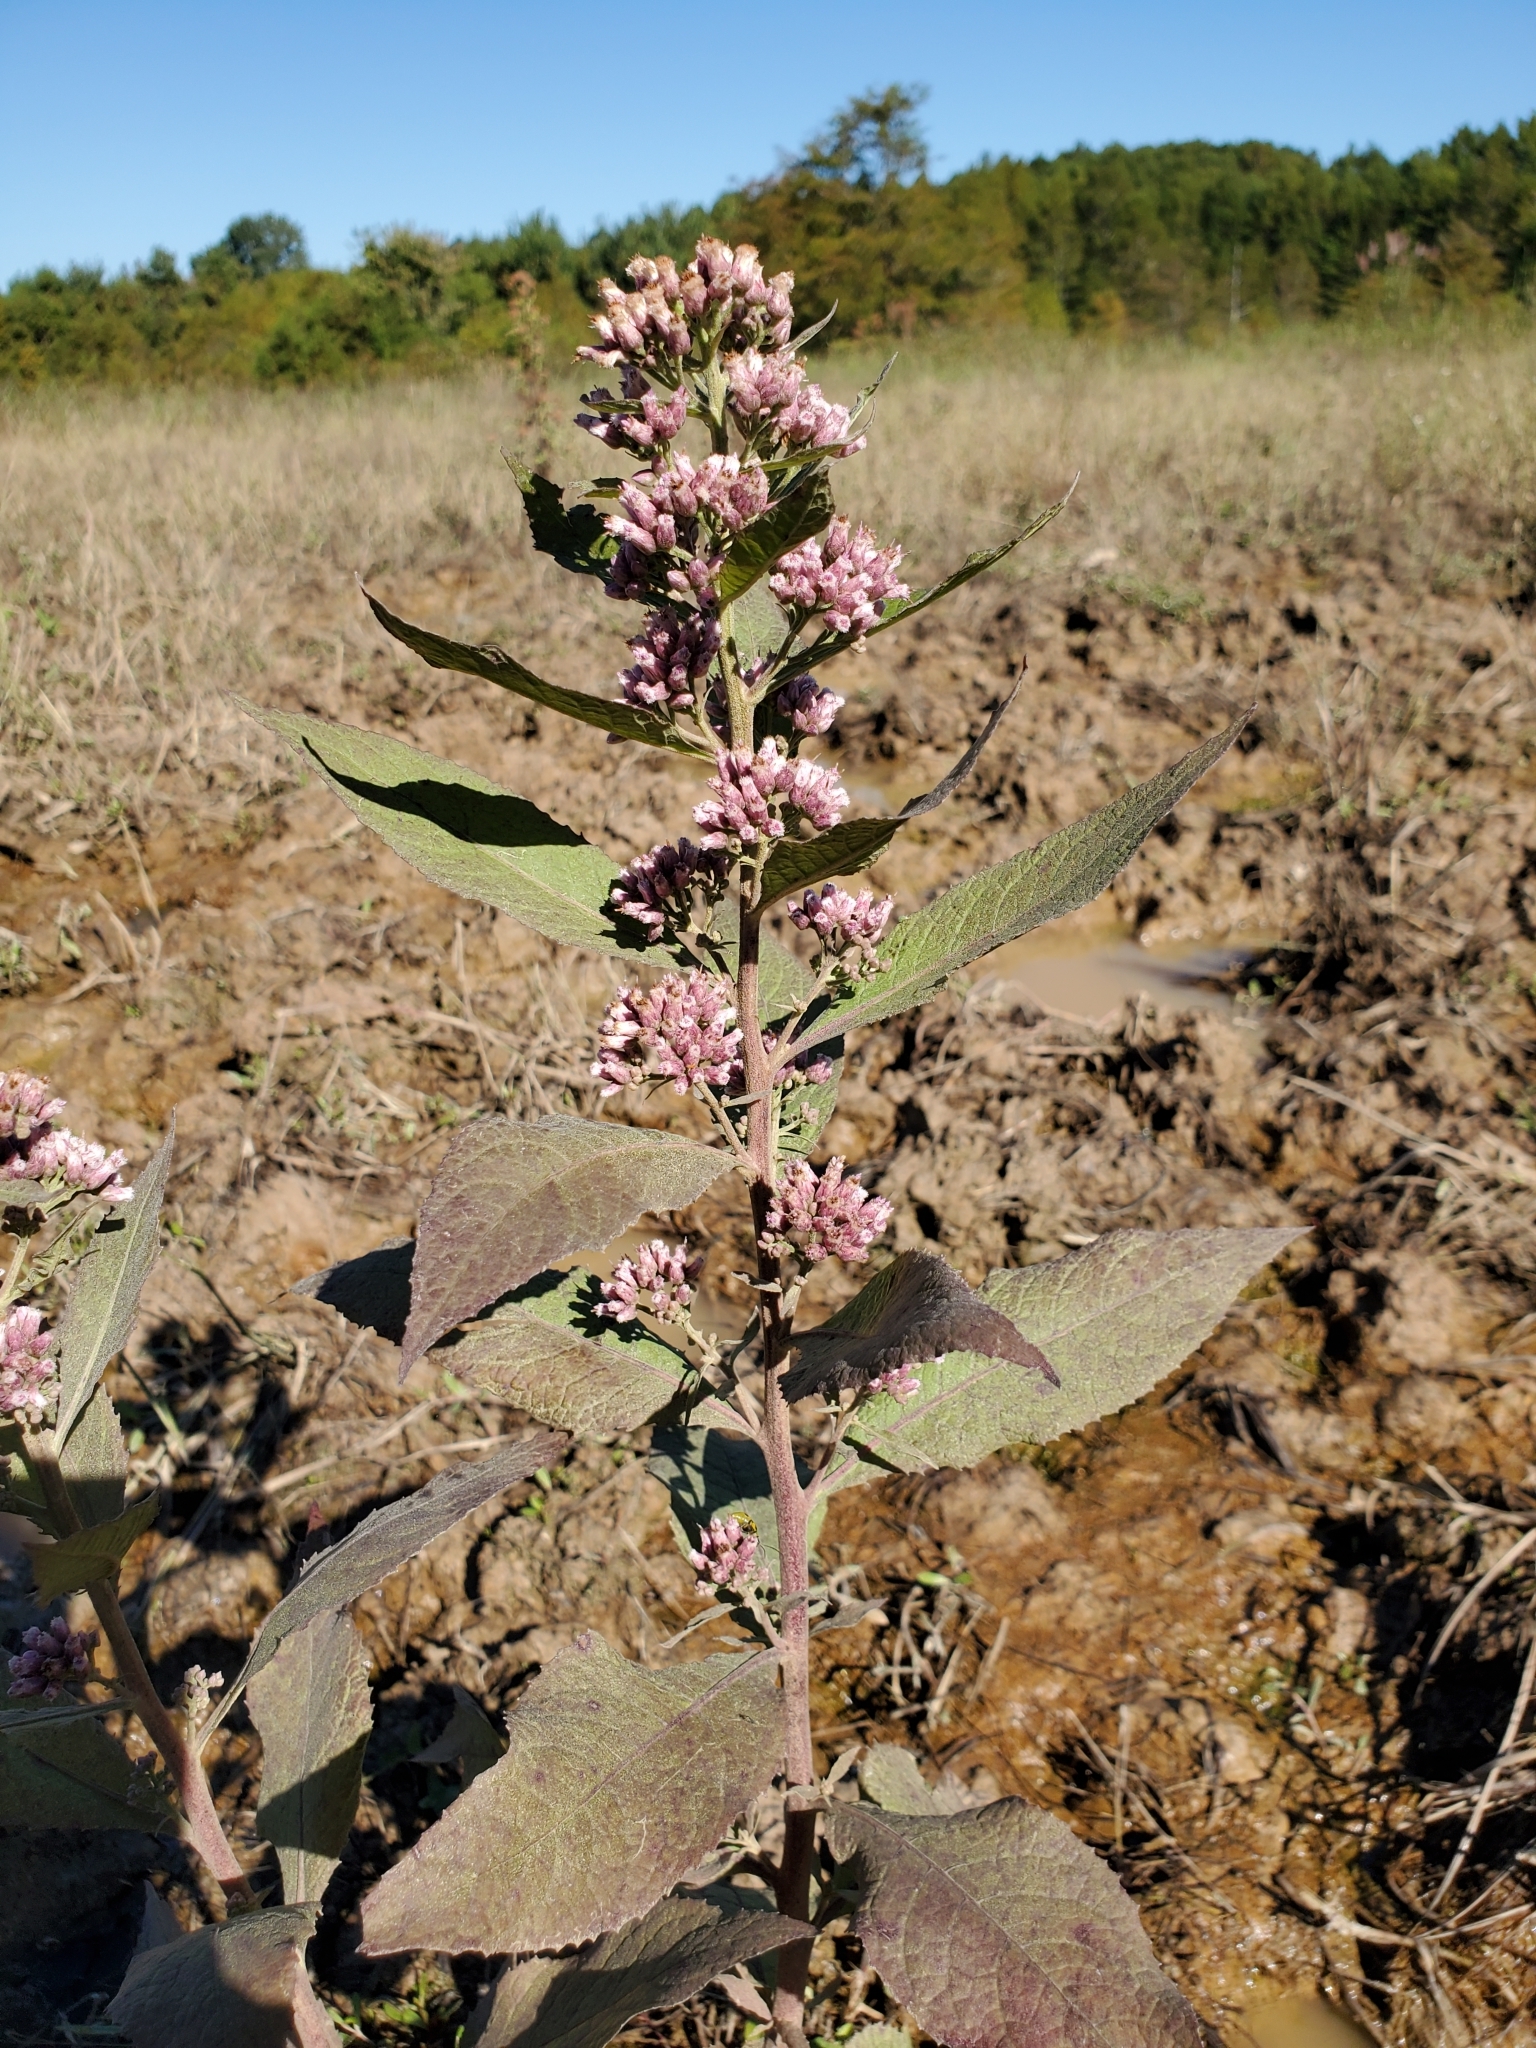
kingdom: Plantae
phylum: Tracheophyta
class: Magnoliopsida
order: Asterales
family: Asteraceae
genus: Pluchea
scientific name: Pluchea camphorata
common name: Camphor pluchea
